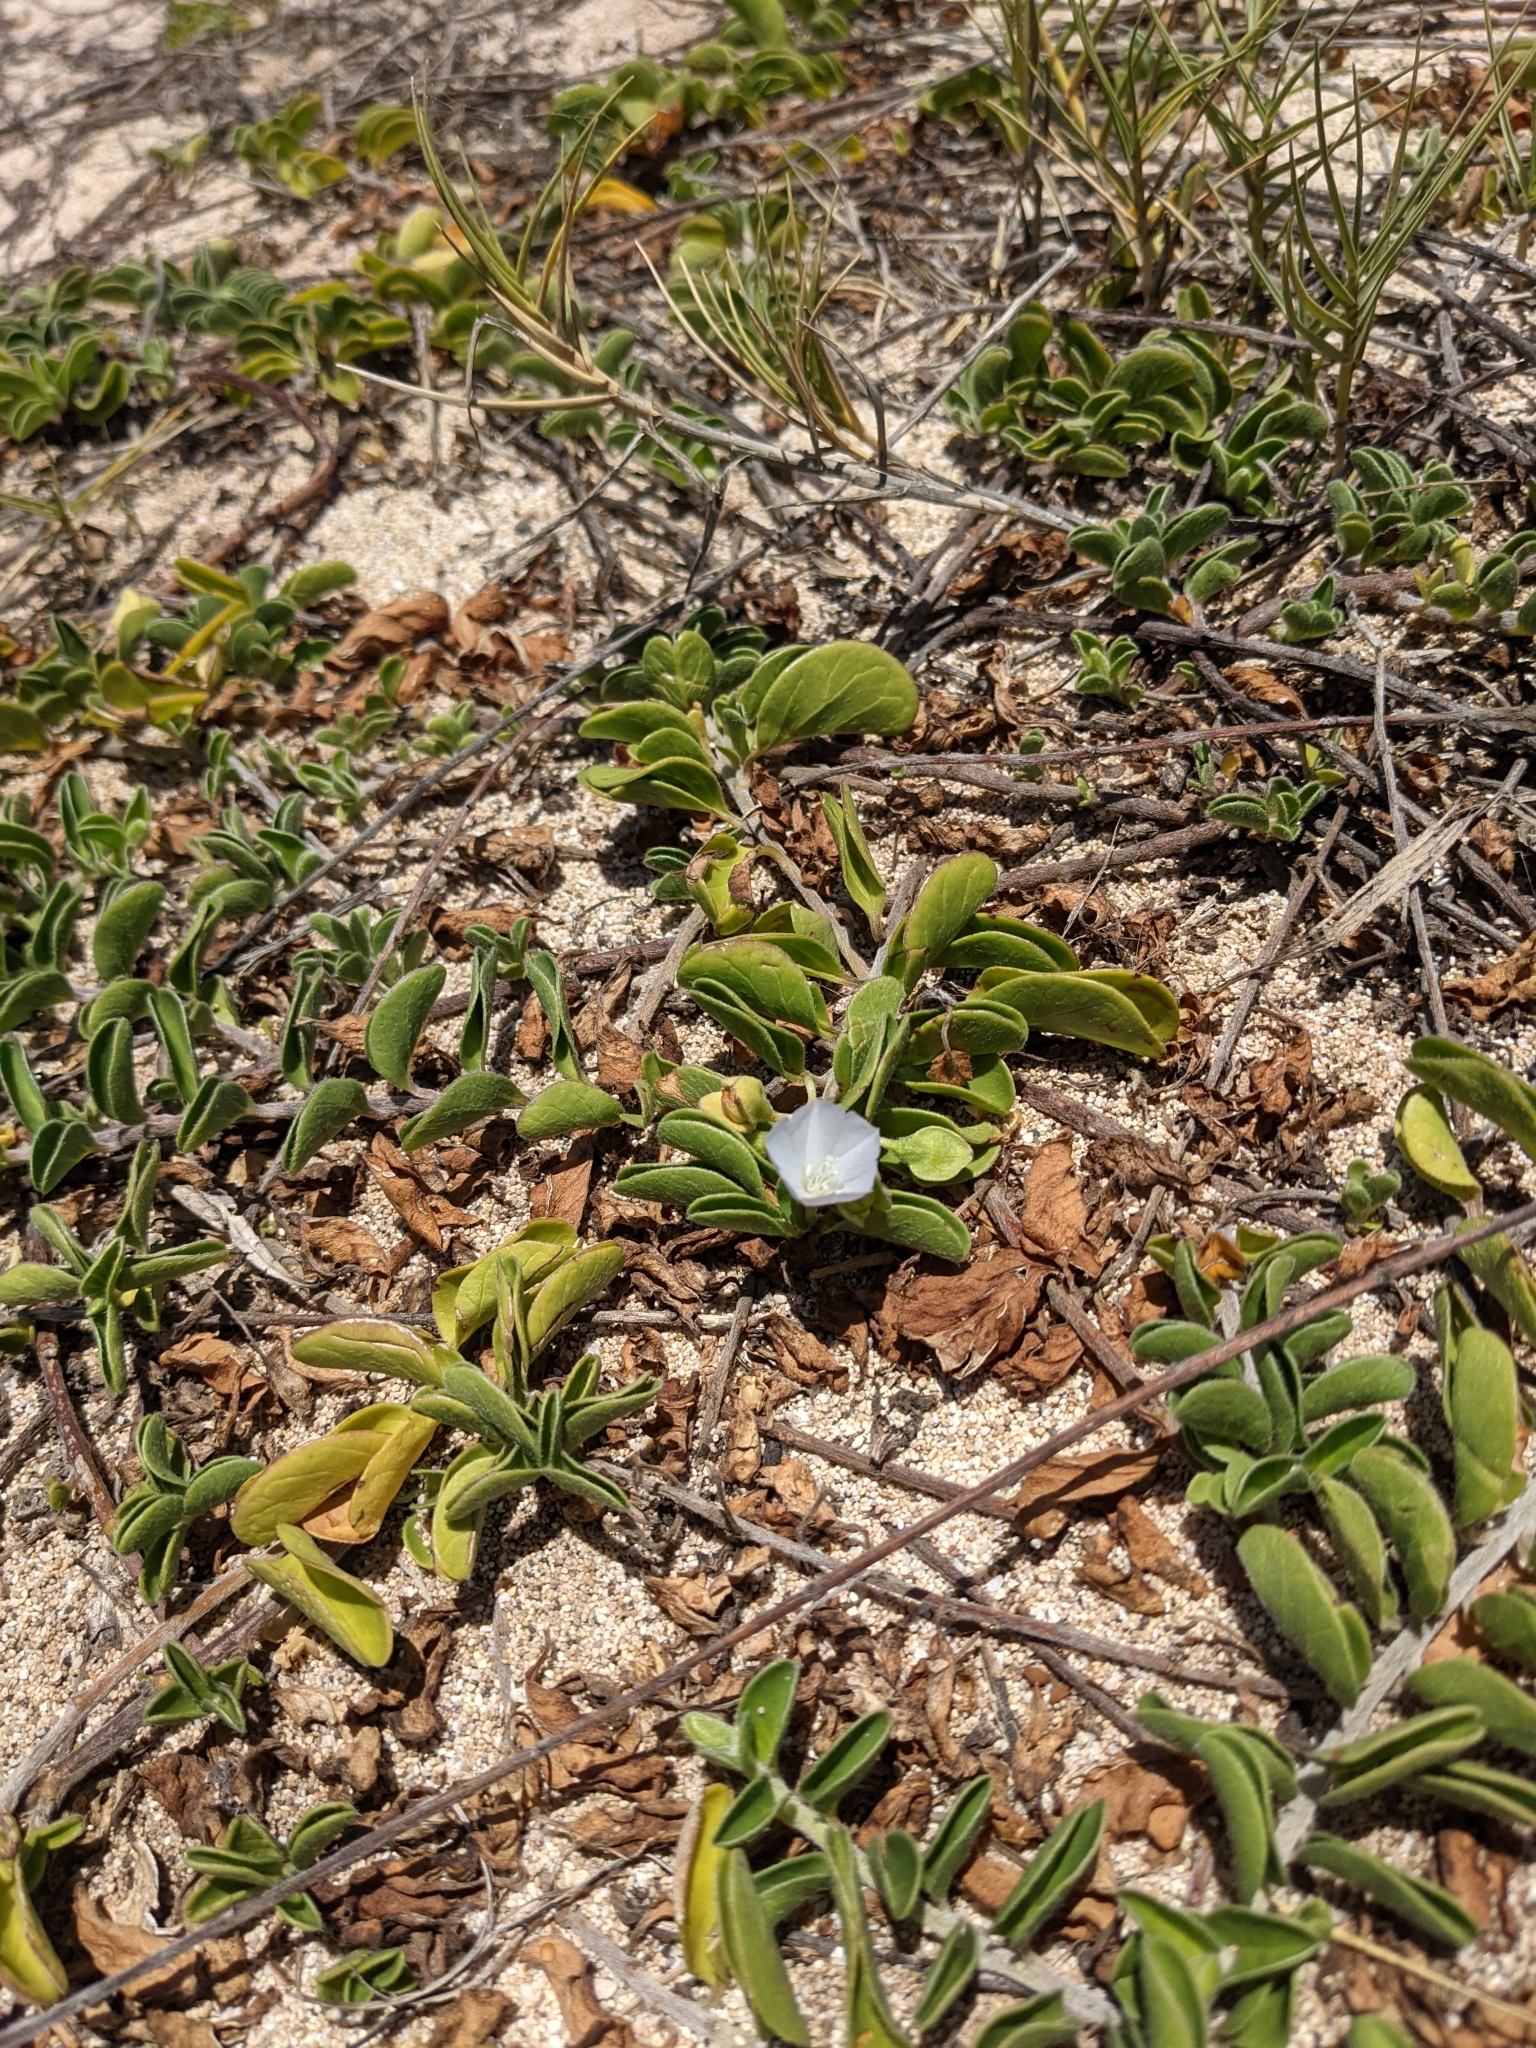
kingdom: Plantae
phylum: Tracheophyta
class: Magnoliopsida
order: Solanales
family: Convolvulaceae
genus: Jacquemontia
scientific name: Jacquemontia sandwicensis
